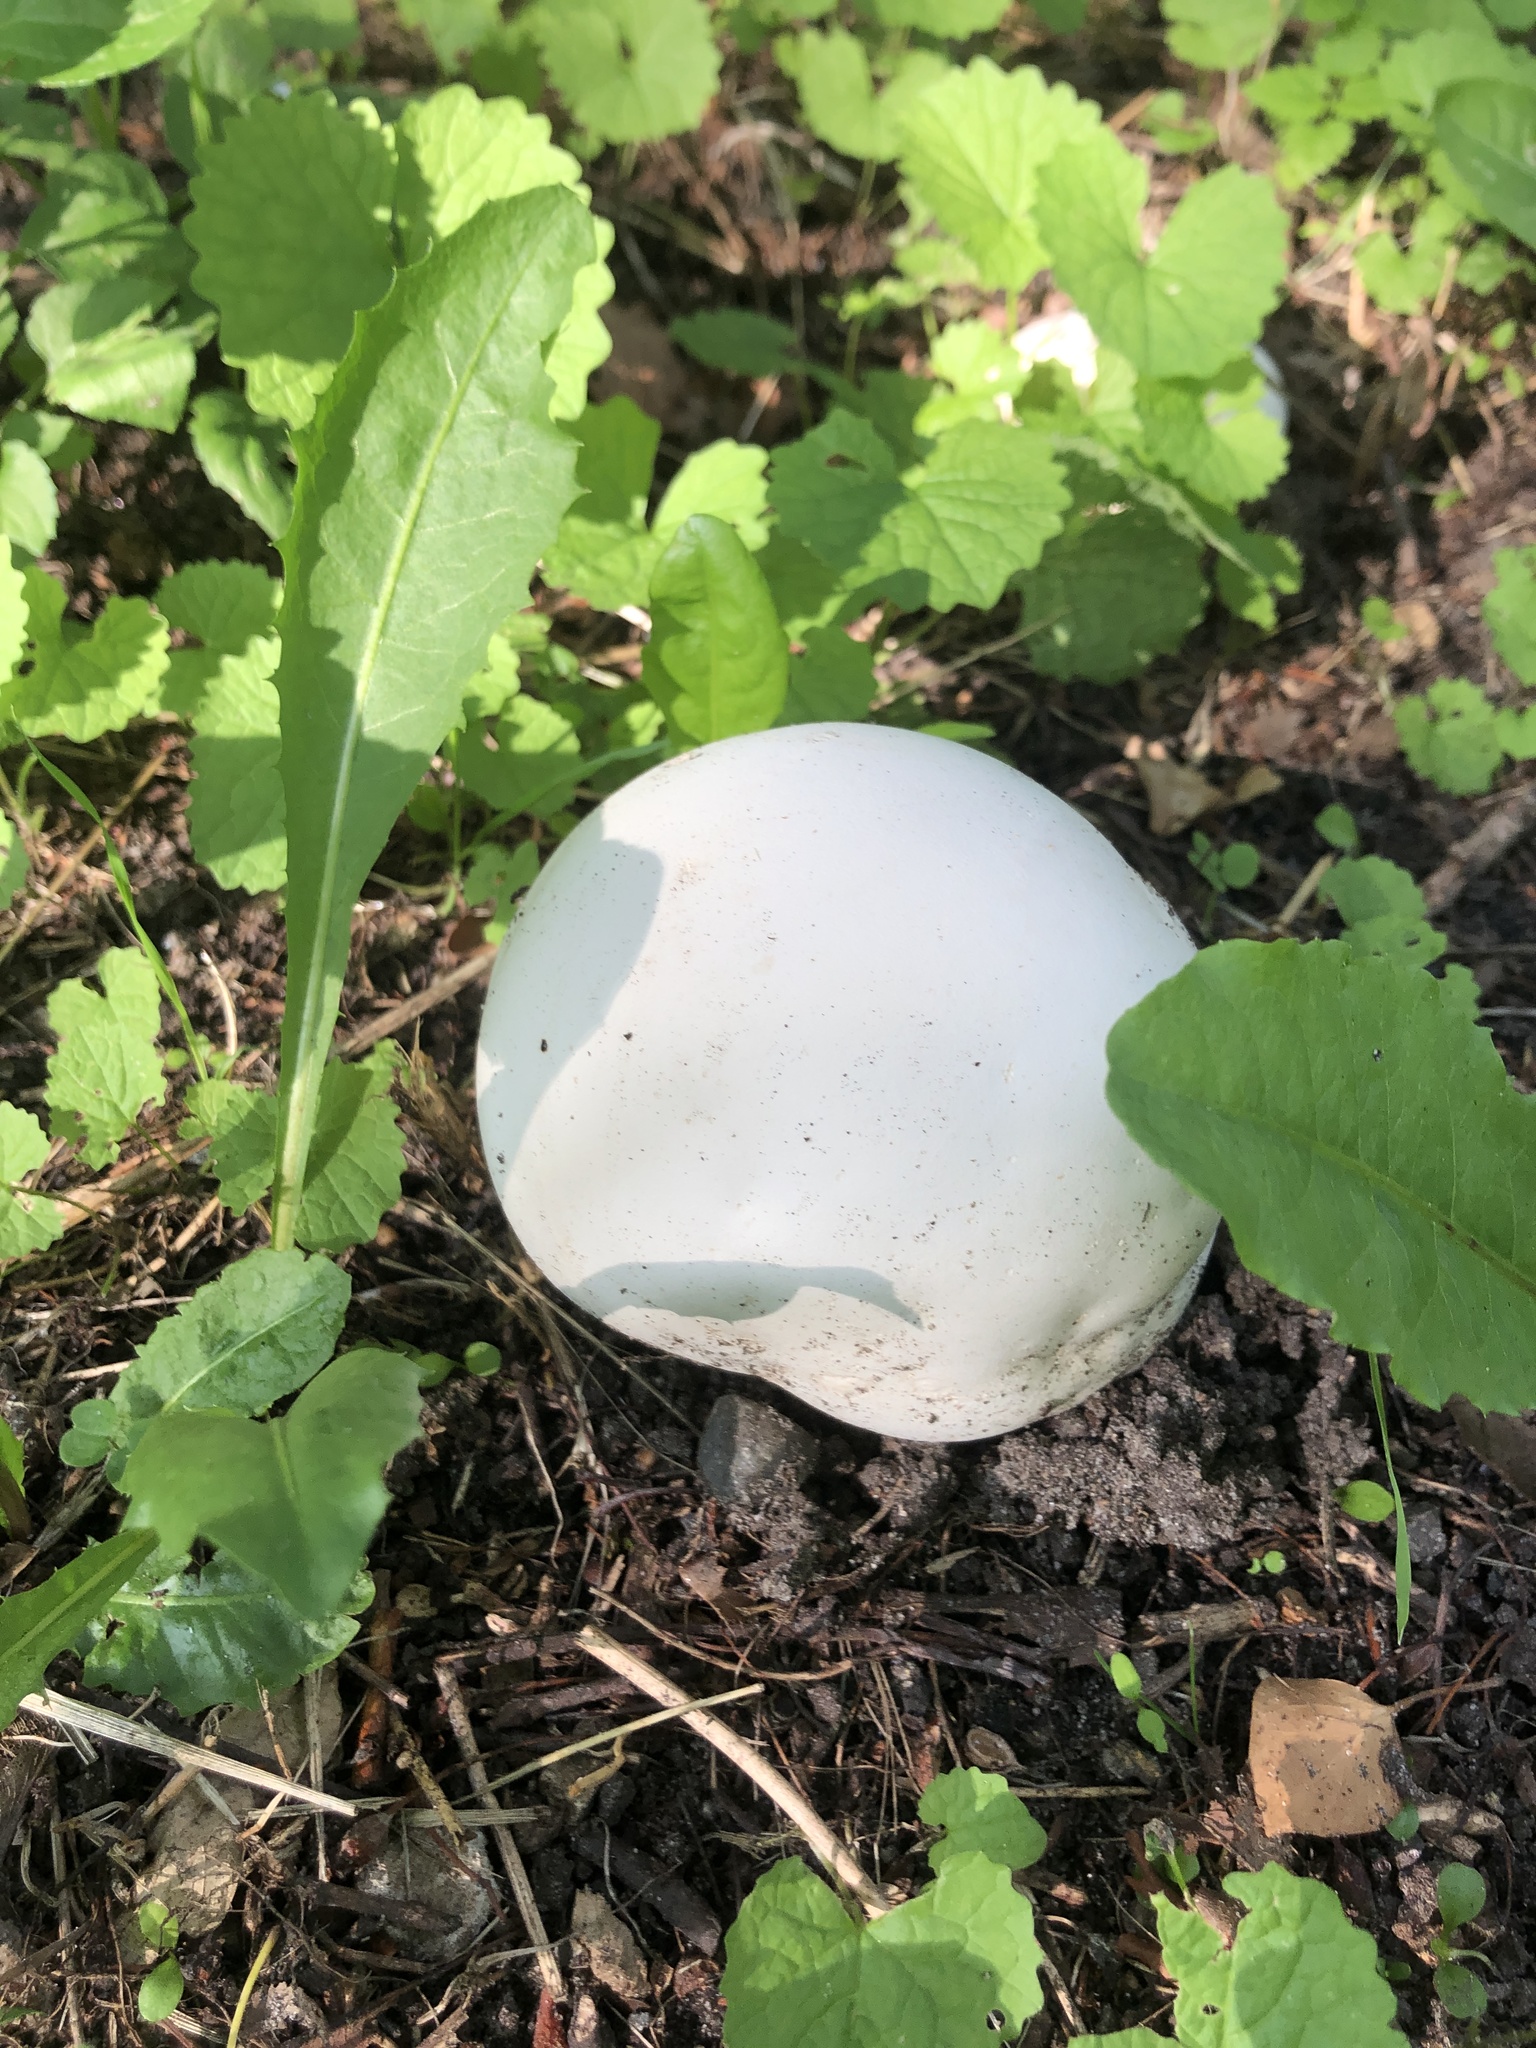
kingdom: Fungi
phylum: Basidiomycota
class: Agaricomycetes
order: Agaricales
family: Lycoperdaceae
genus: Calvatia
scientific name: Calvatia gigantea
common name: Giant puffball
